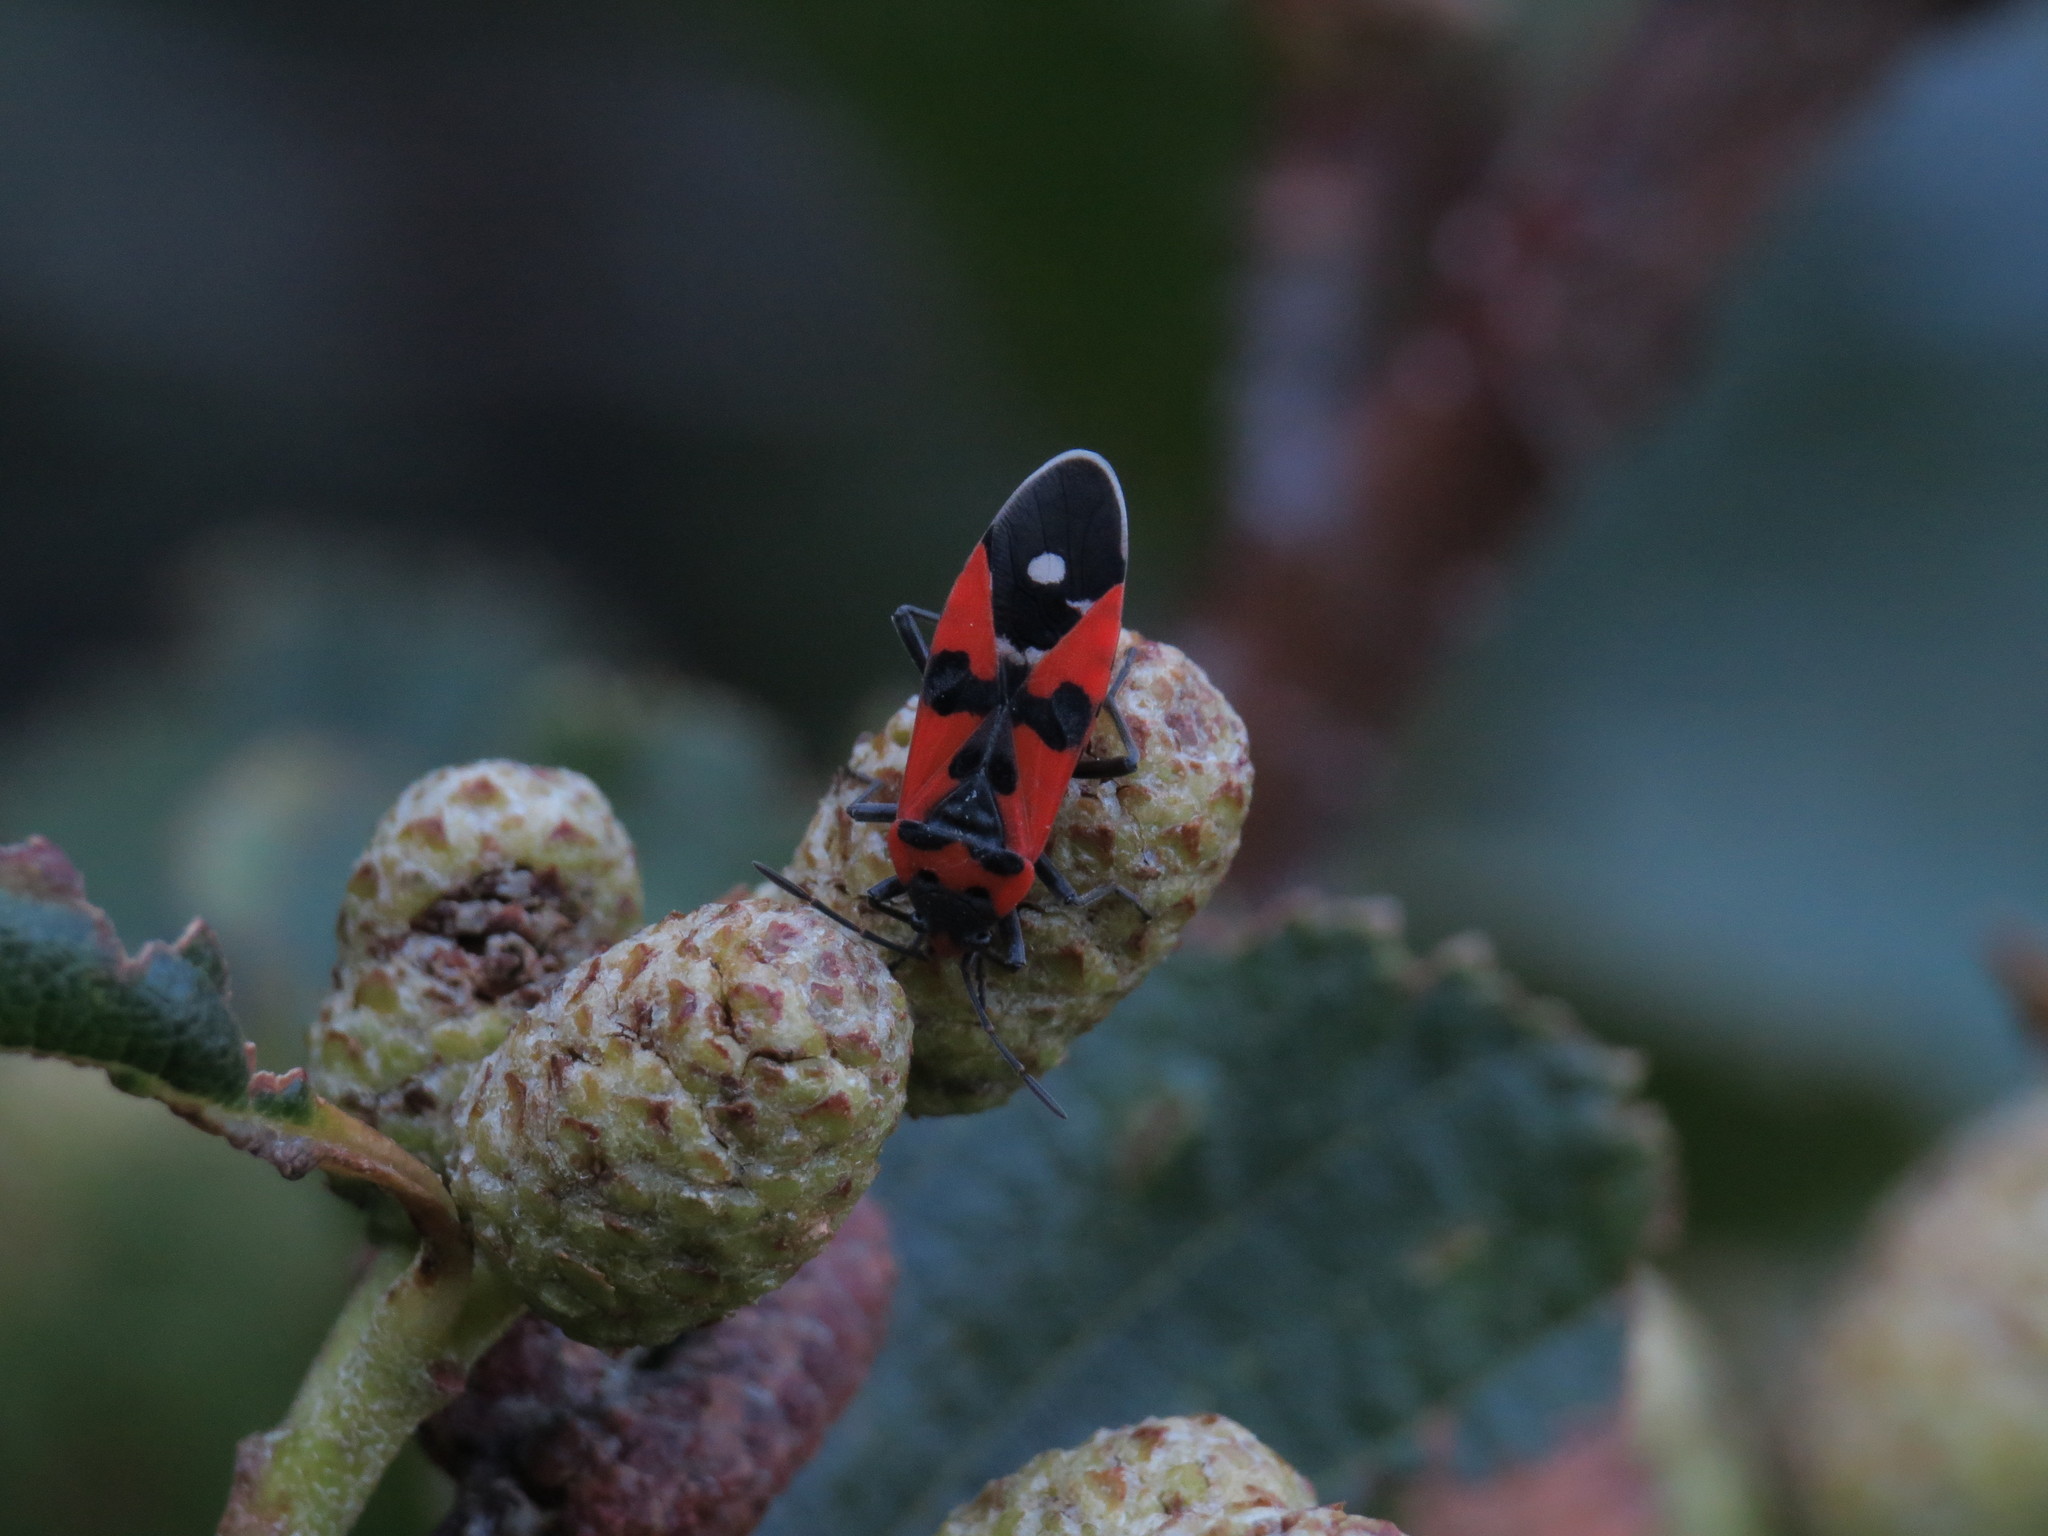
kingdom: Animalia
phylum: Arthropoda
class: Insecta
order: Hemiptera
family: Lygaeidae
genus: Lygaeus
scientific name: Lygaeus equestris
